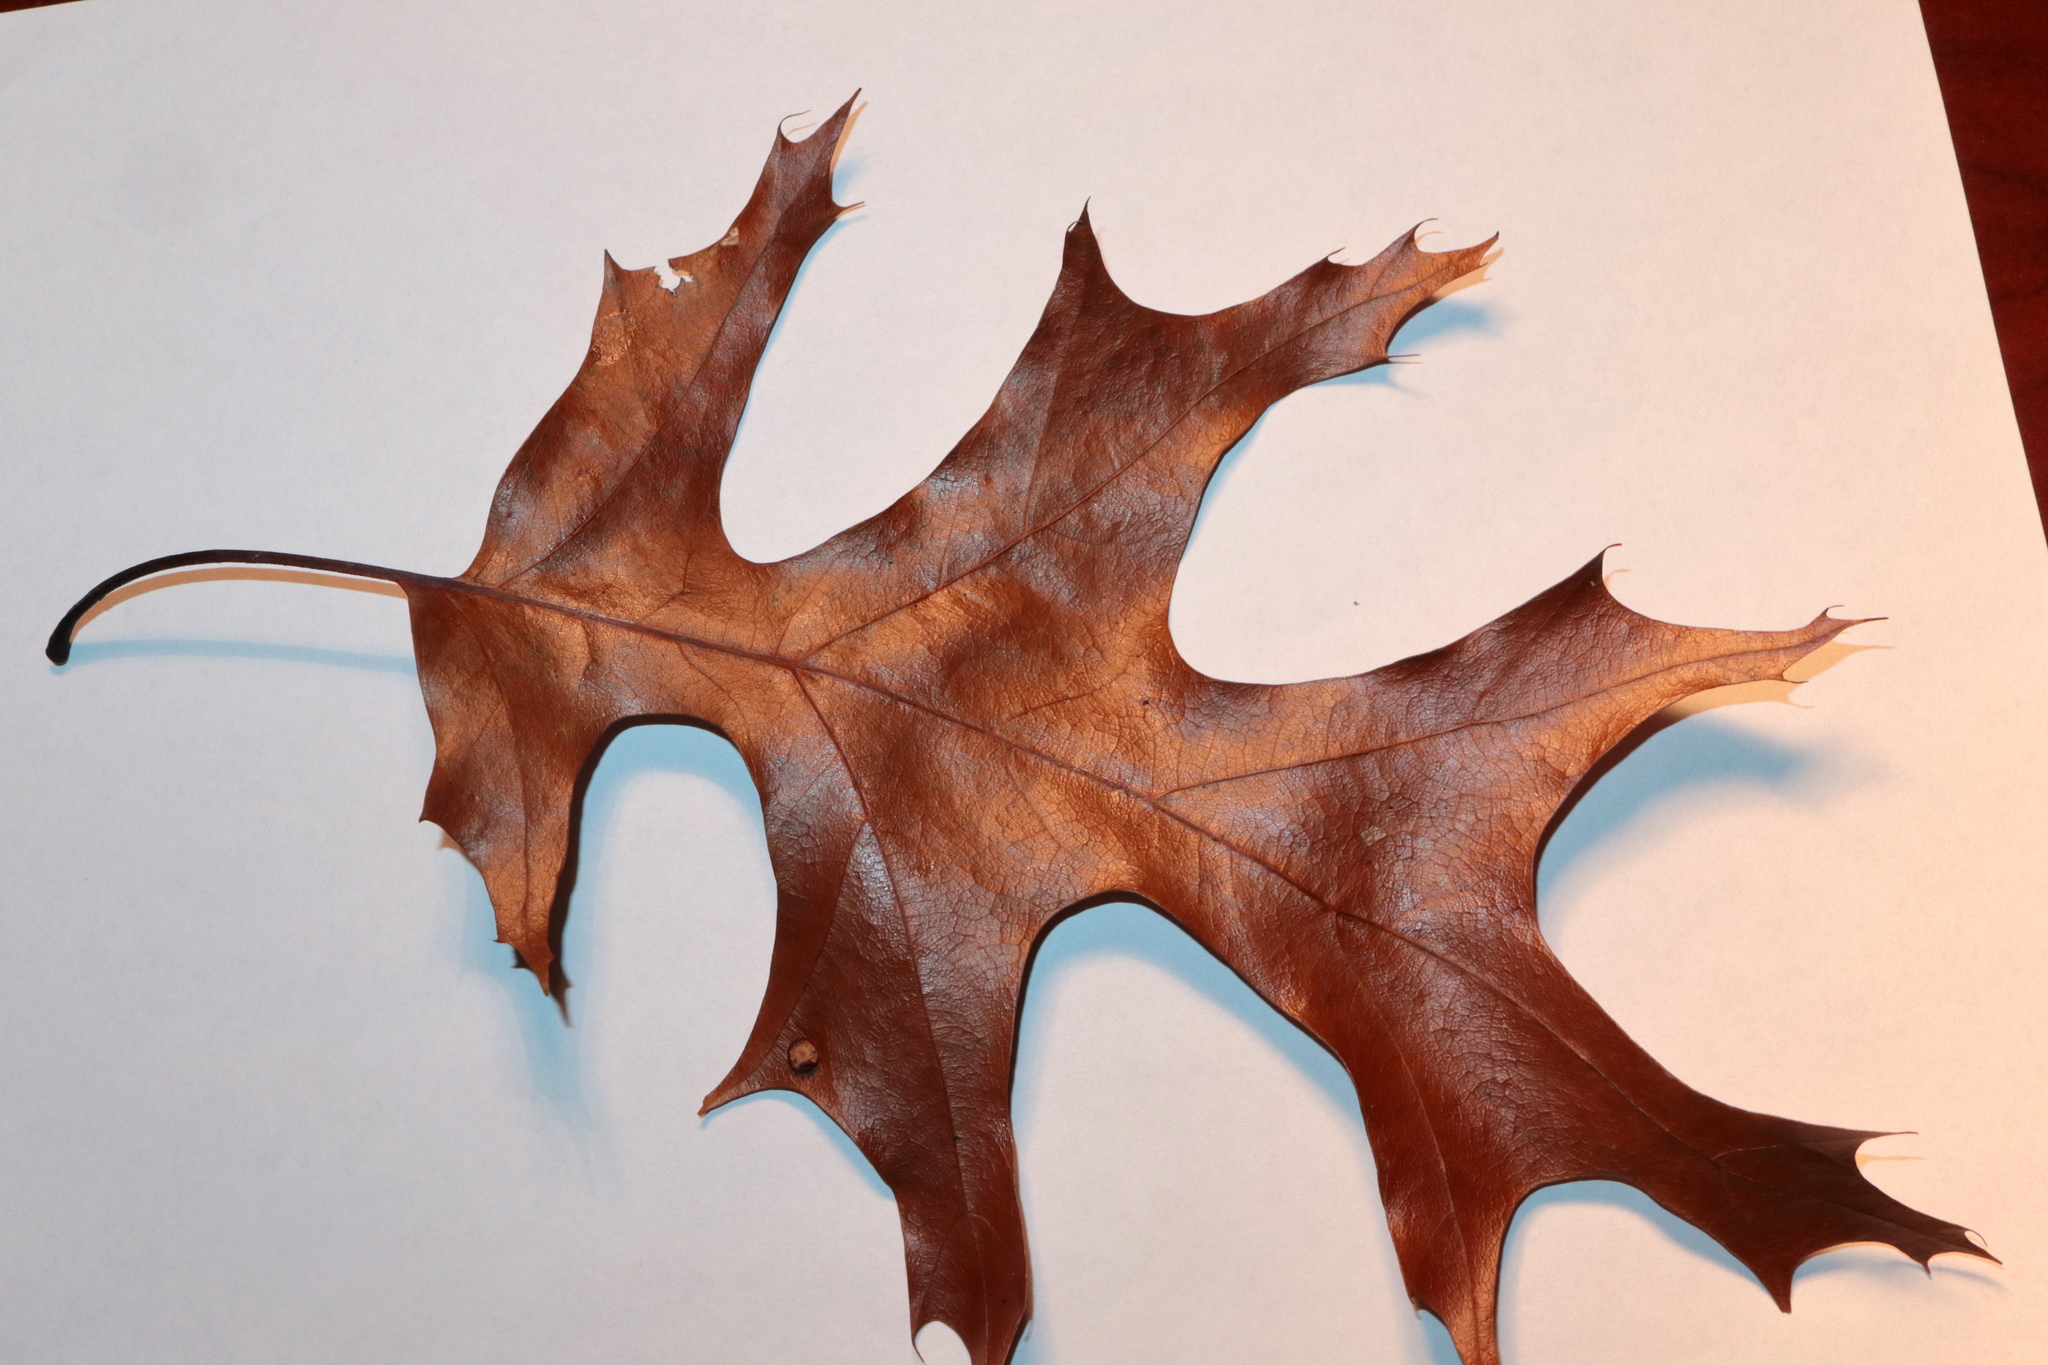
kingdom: Animalia
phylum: Arthropoda
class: Insecta
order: Diptera
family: Cecidomyiidae
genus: Polystepha
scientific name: Polystepha pilulae
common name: Oak leaf gall midge
